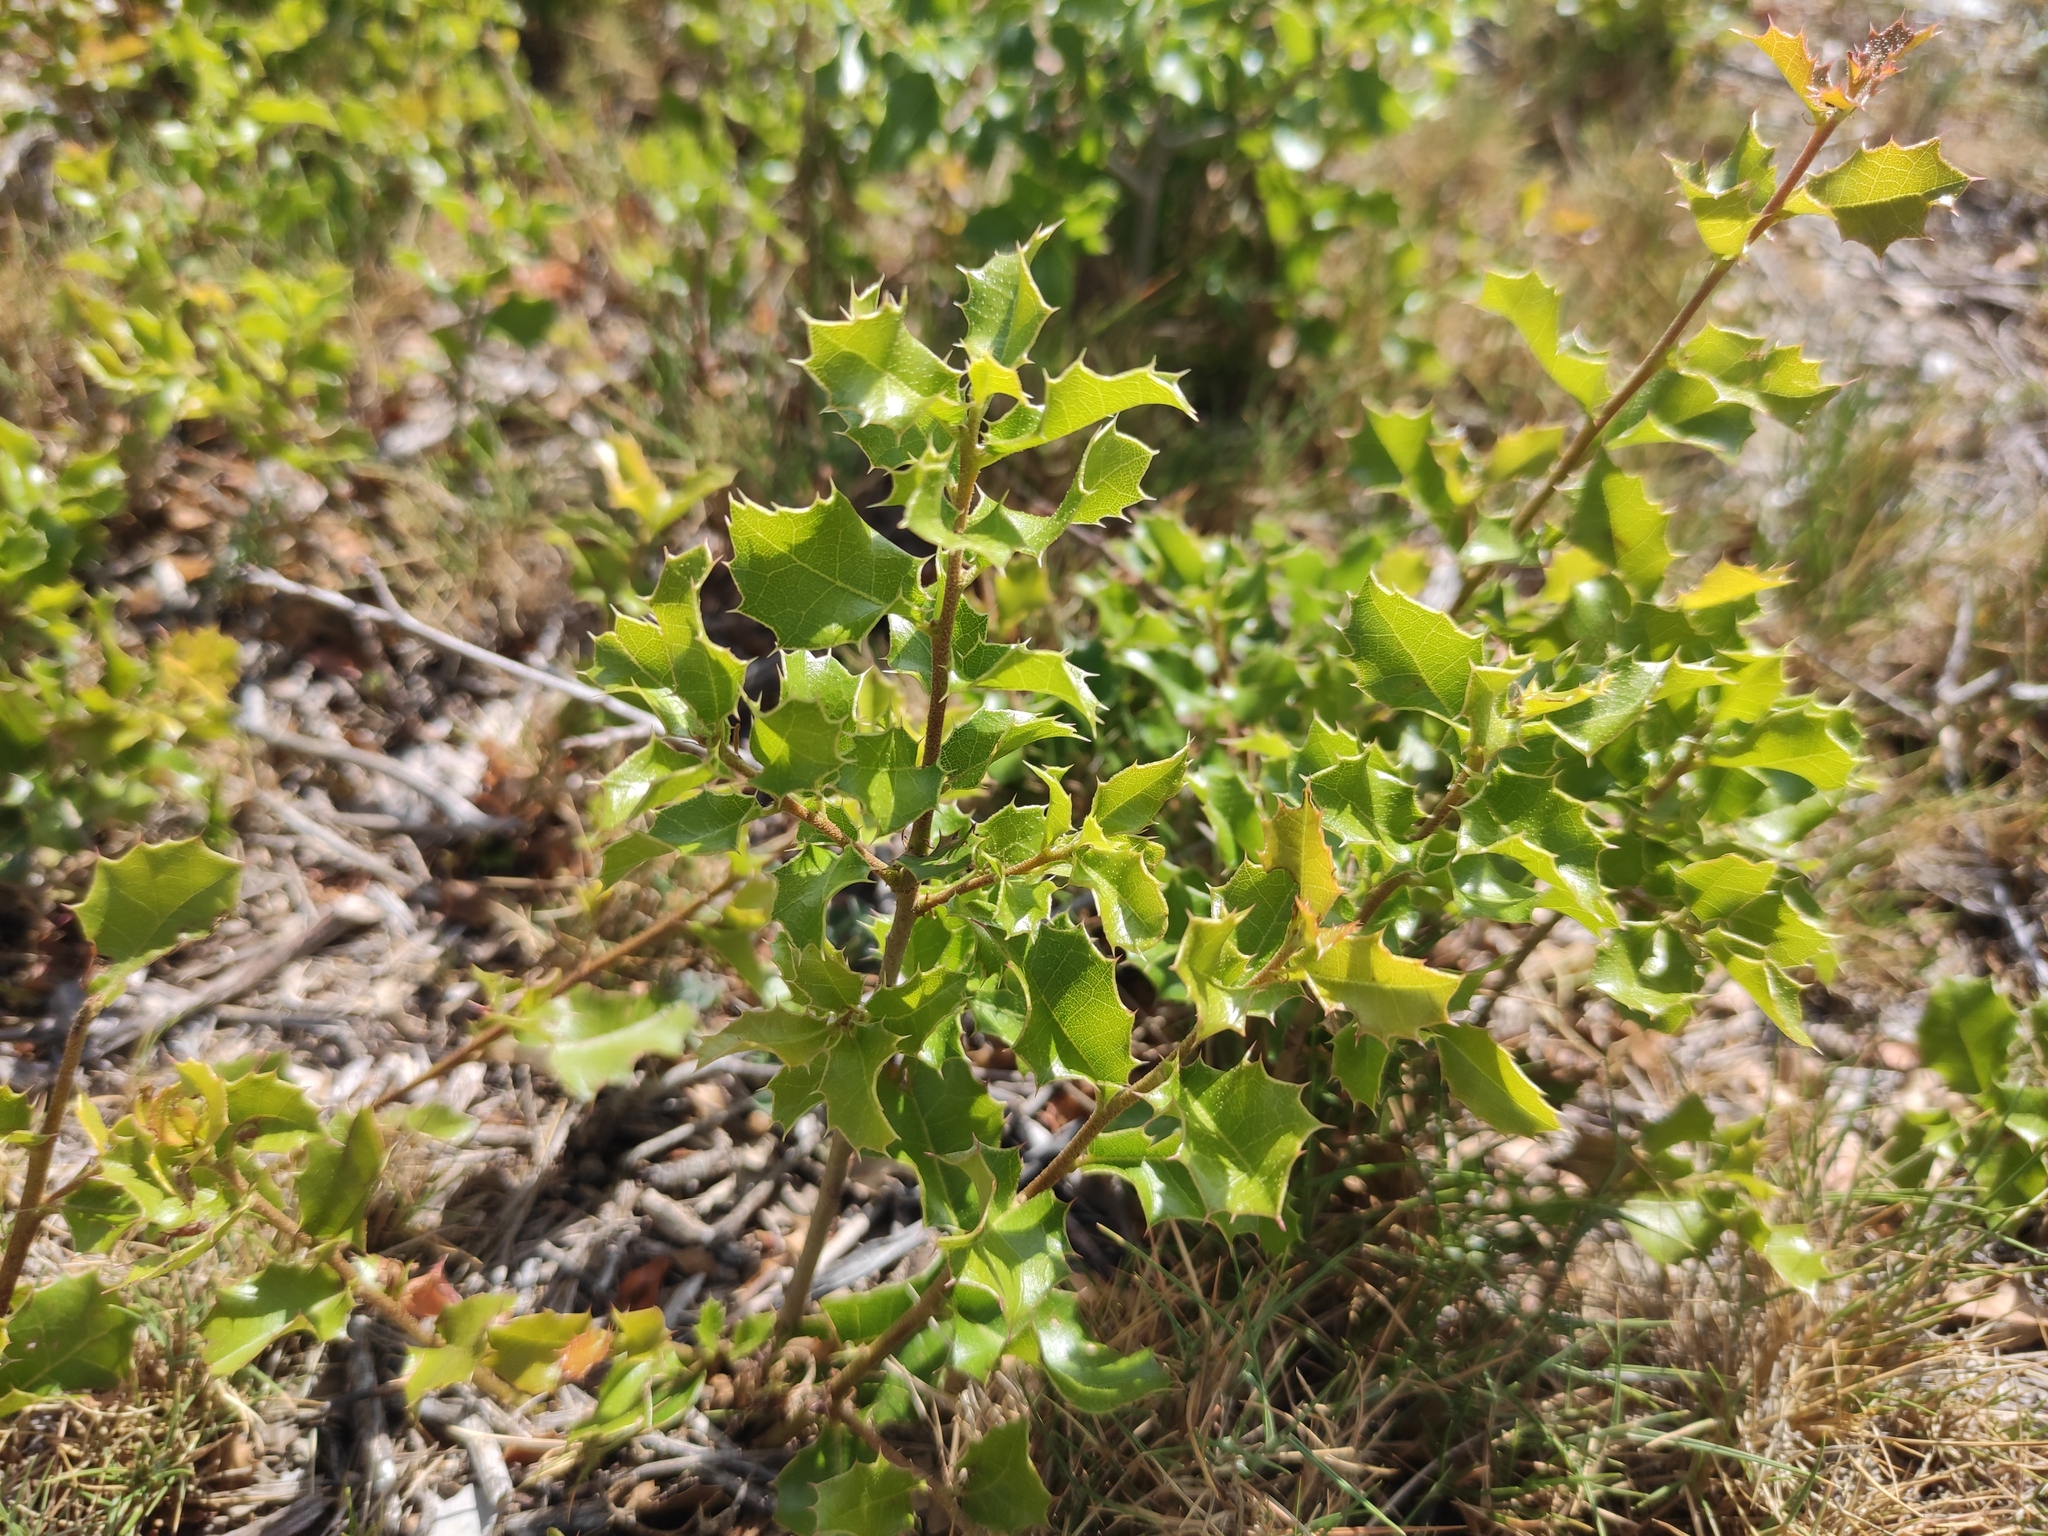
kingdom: Plantae
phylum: Tracheophyta
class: Magnoliopsida
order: Fagales
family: Fagaceae
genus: Quercus
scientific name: Quercus coccifera
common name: Kermes oak
